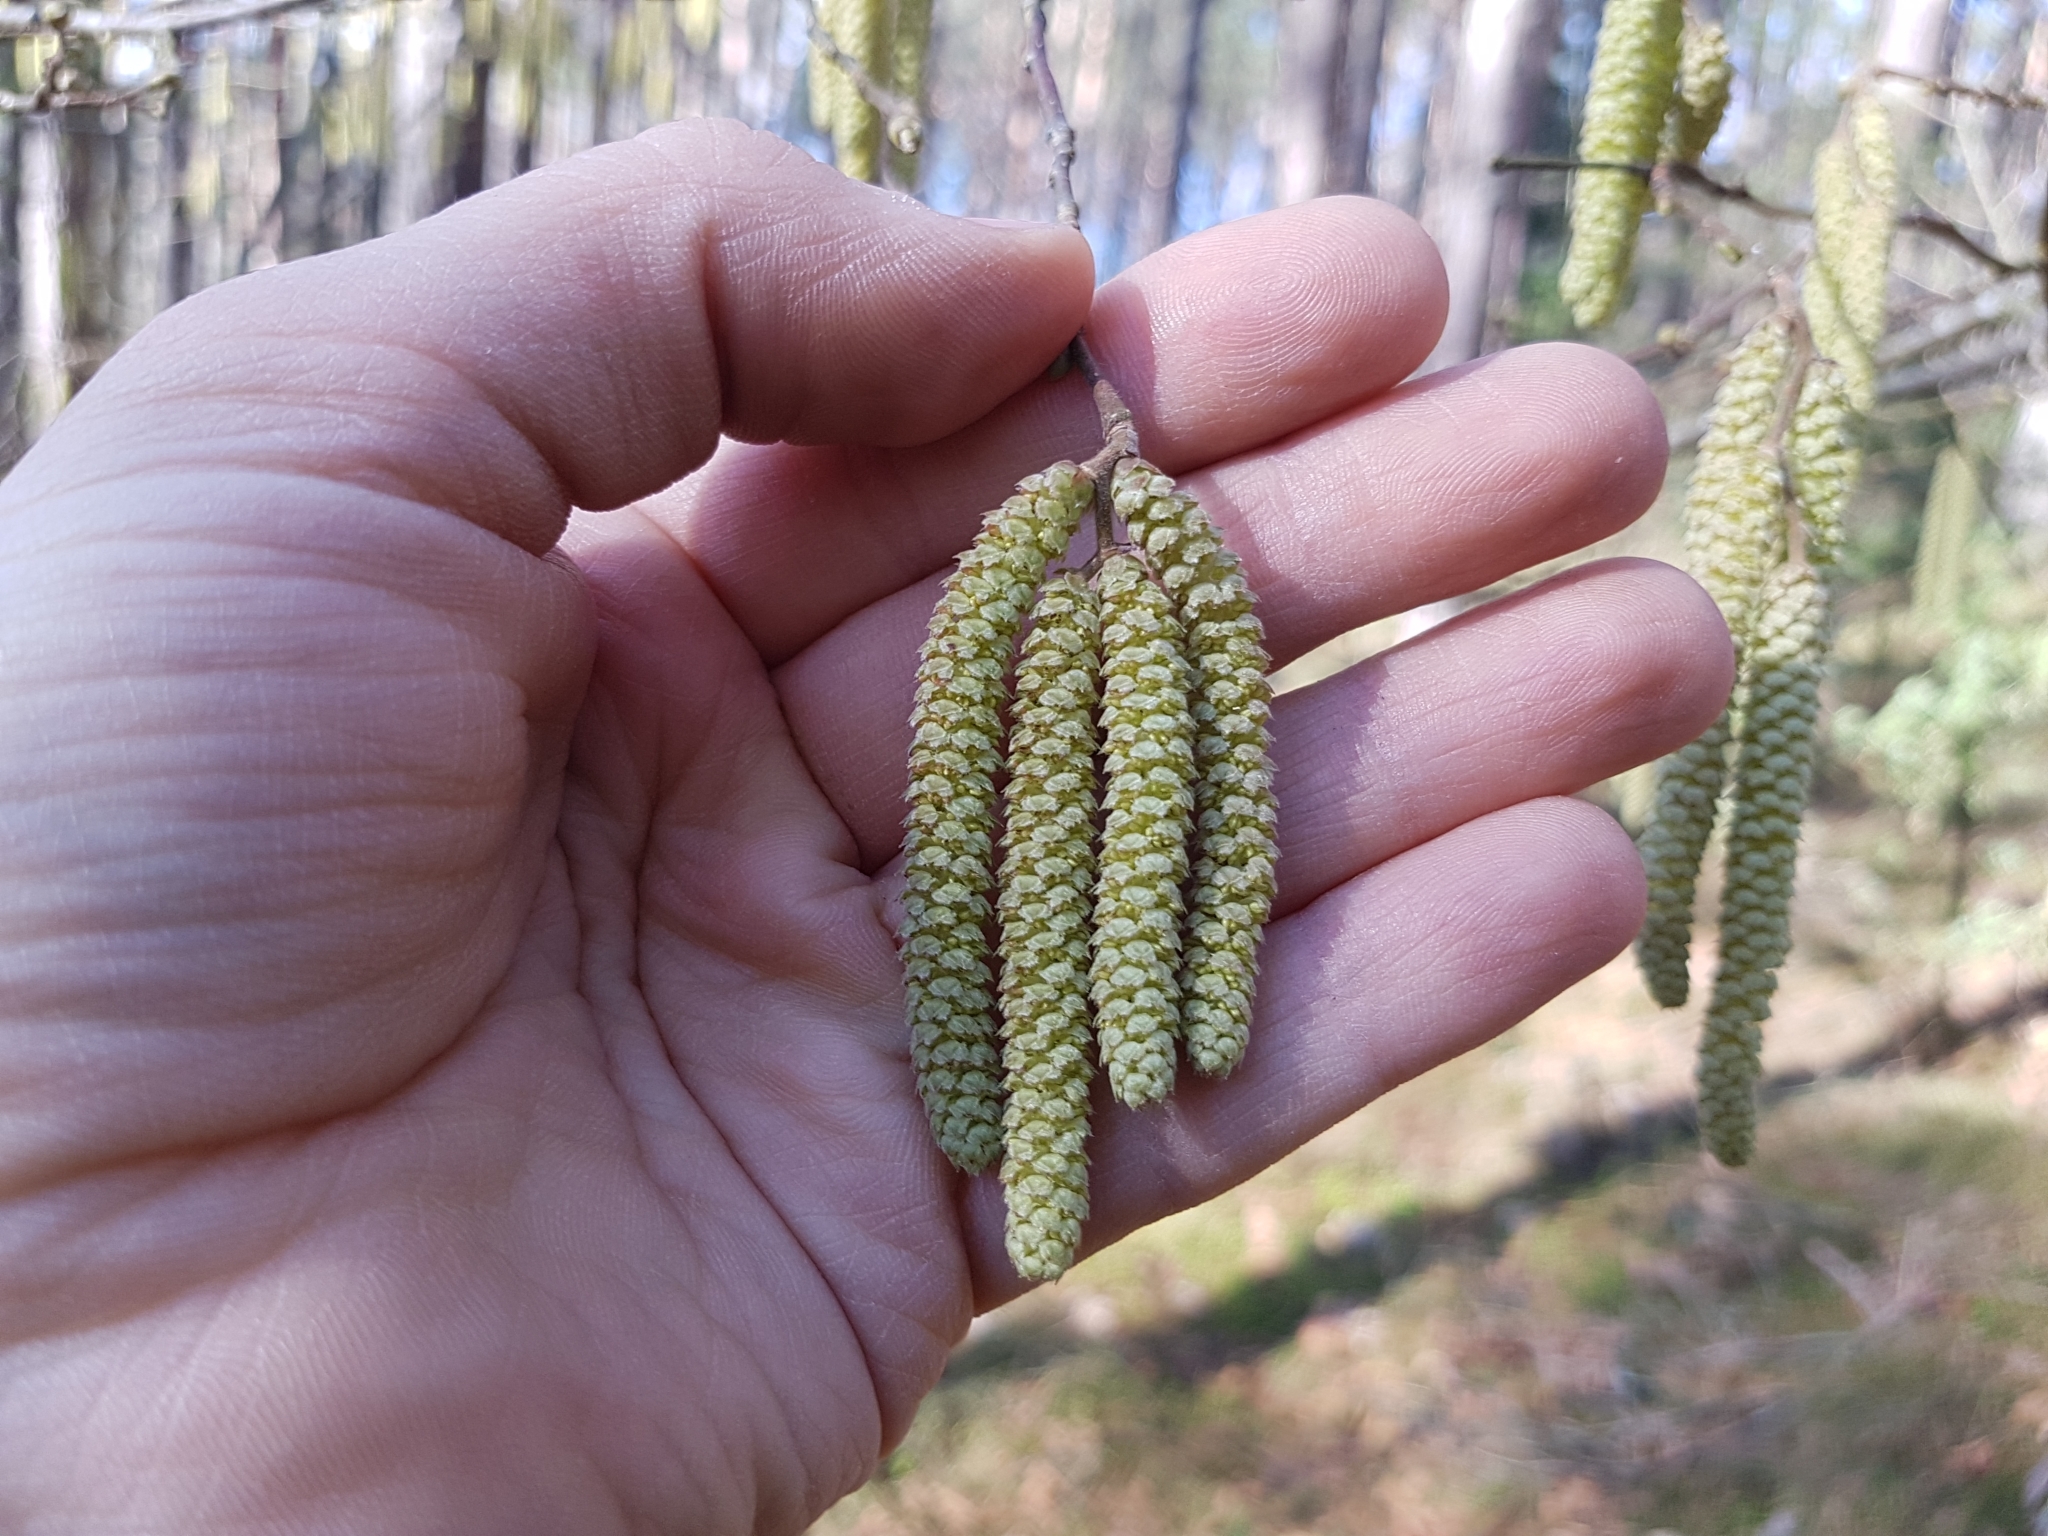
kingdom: Plantae
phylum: Tracheophyta
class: Magnoliopsida
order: Fagales
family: Betulaceae
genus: Corylus
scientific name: Corylus avellana
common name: European hazel
